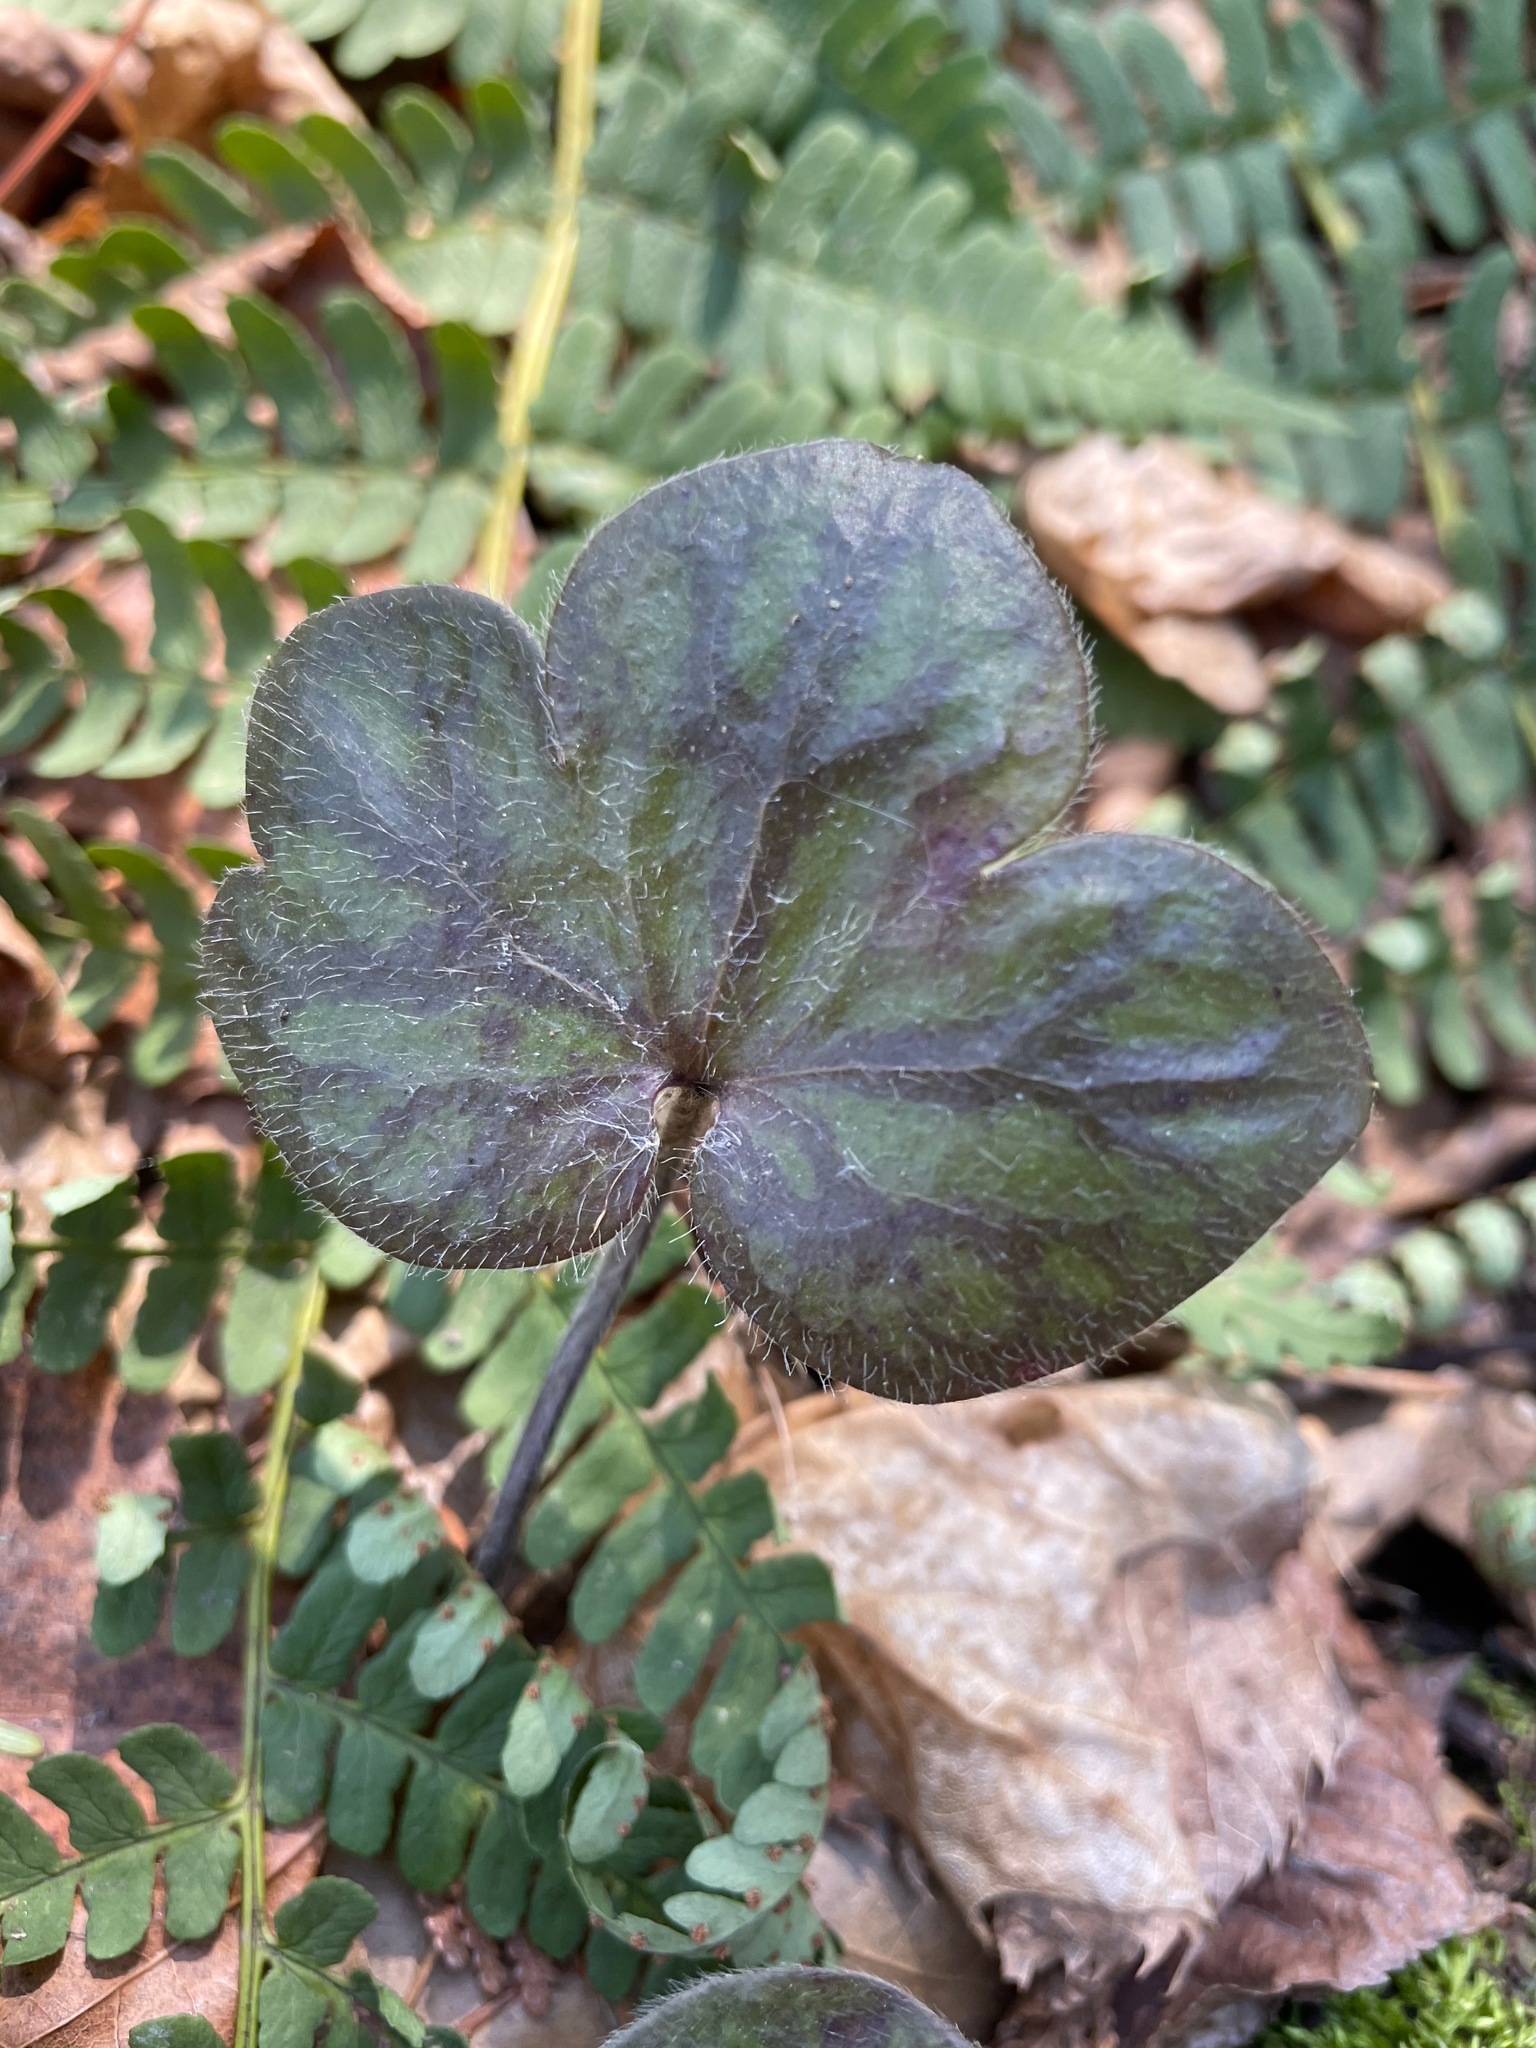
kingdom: Plantae
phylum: Tracheophyta
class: Magnoliopsida
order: Ranunculales
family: Ranunculaceae
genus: Hepatica
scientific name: Hepatica americana
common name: American hepatica
